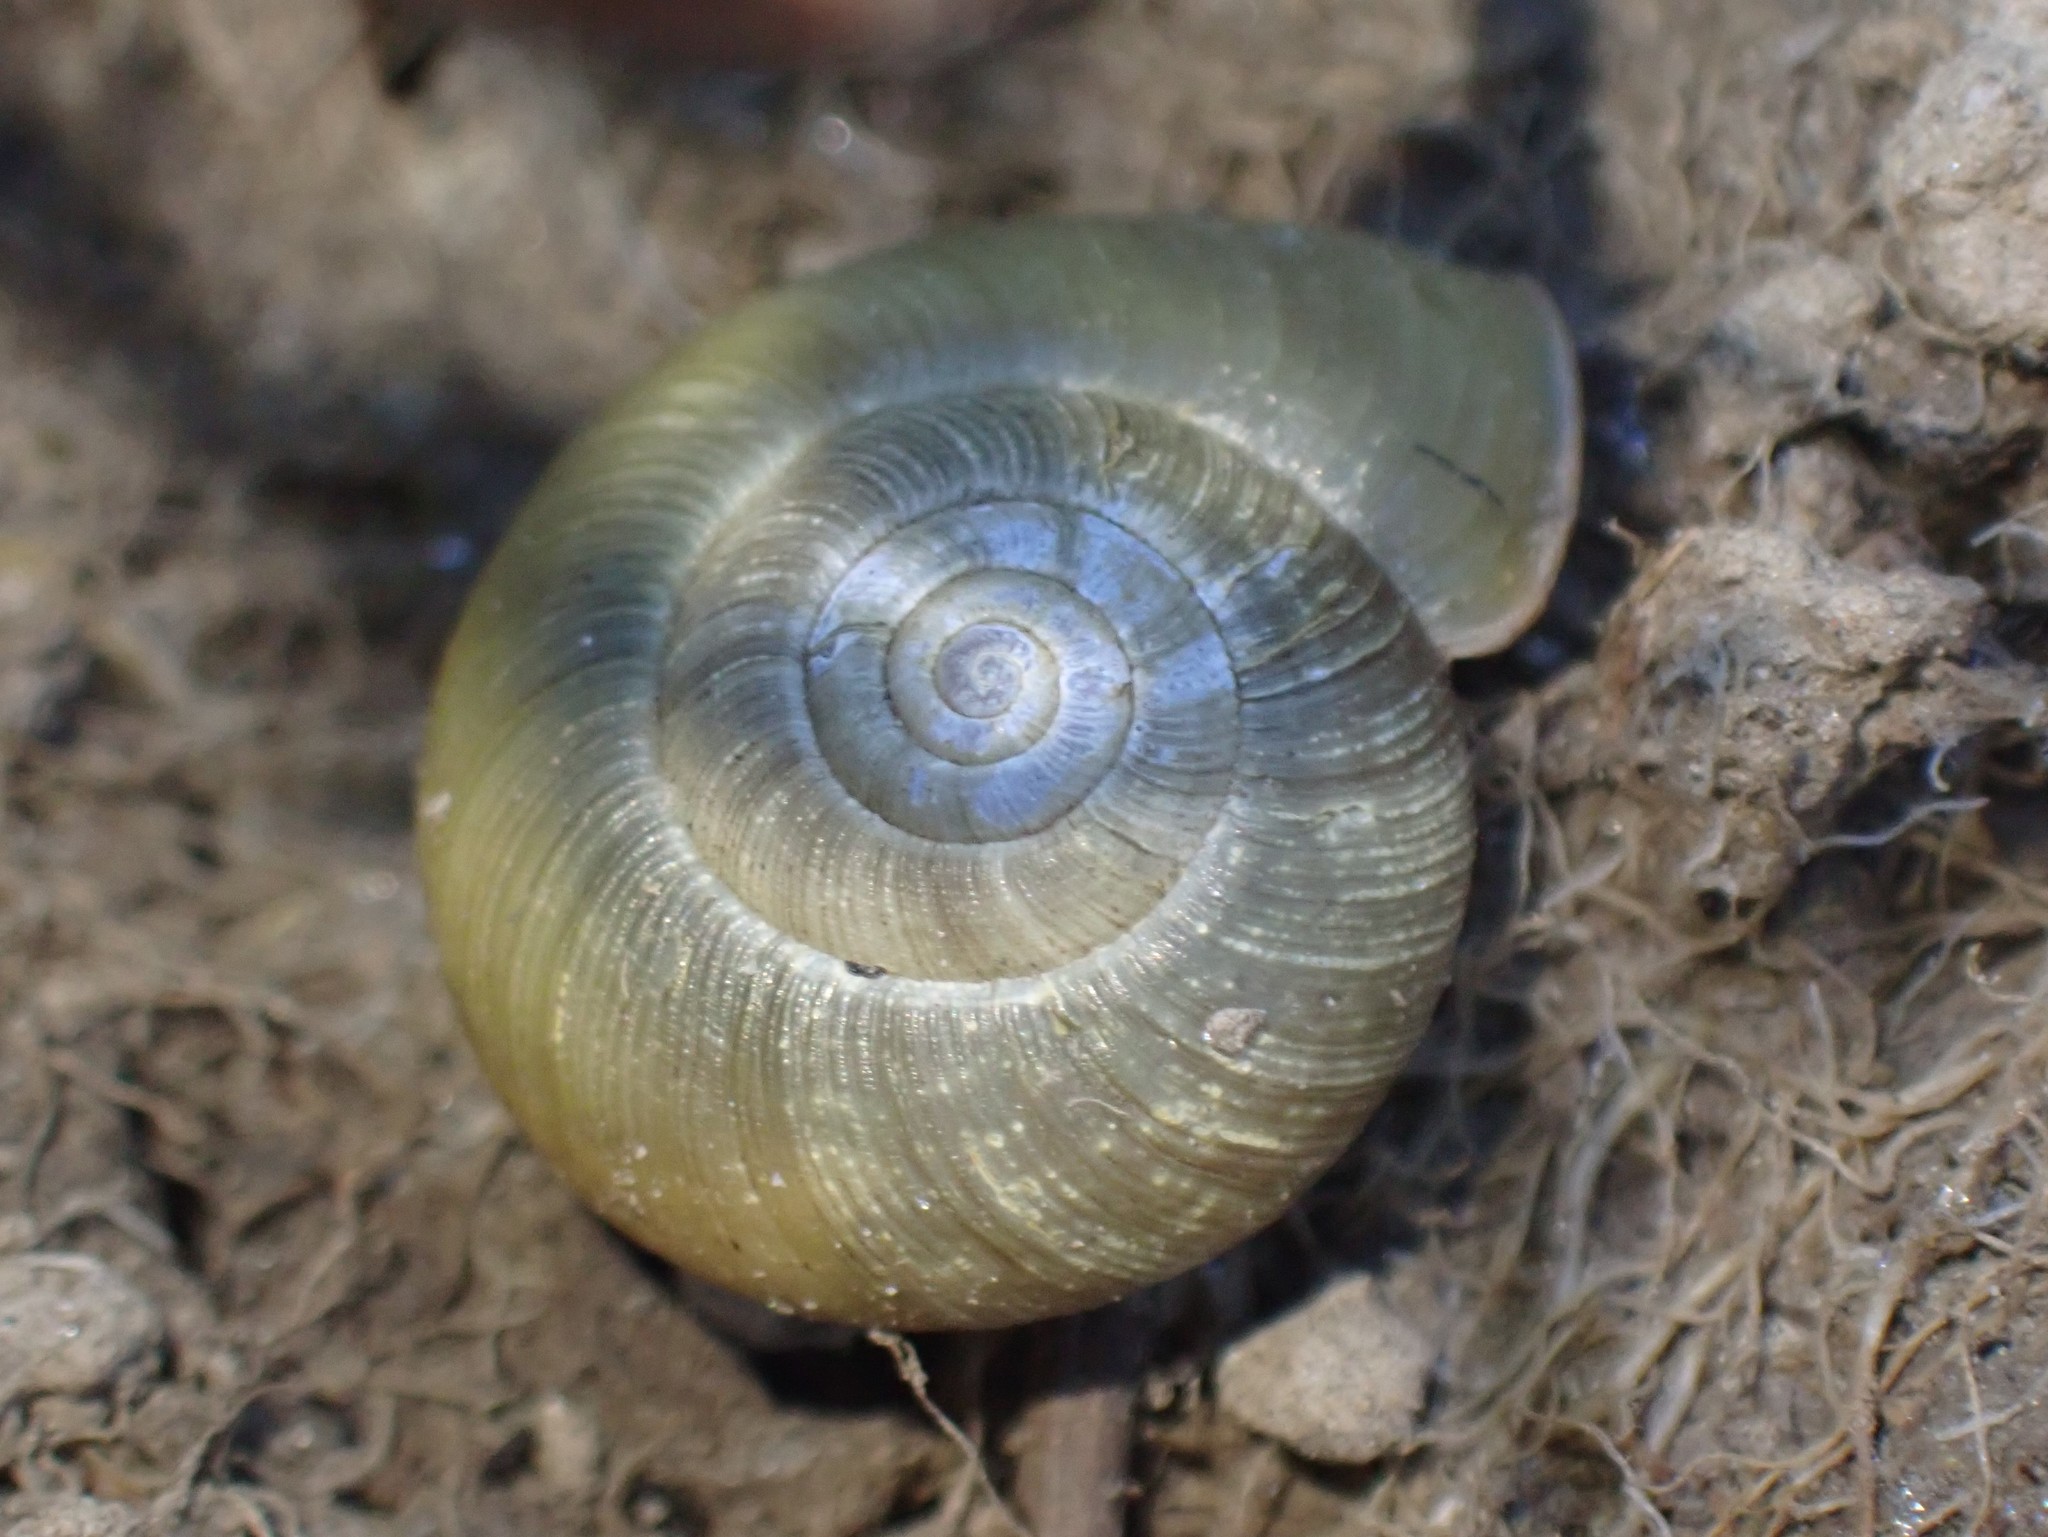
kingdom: Animalia
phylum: Mollusca
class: Gastropoda
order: Stylommatophora
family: Haplotrematidae
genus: Ancotrema
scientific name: Ancotrema sportella
